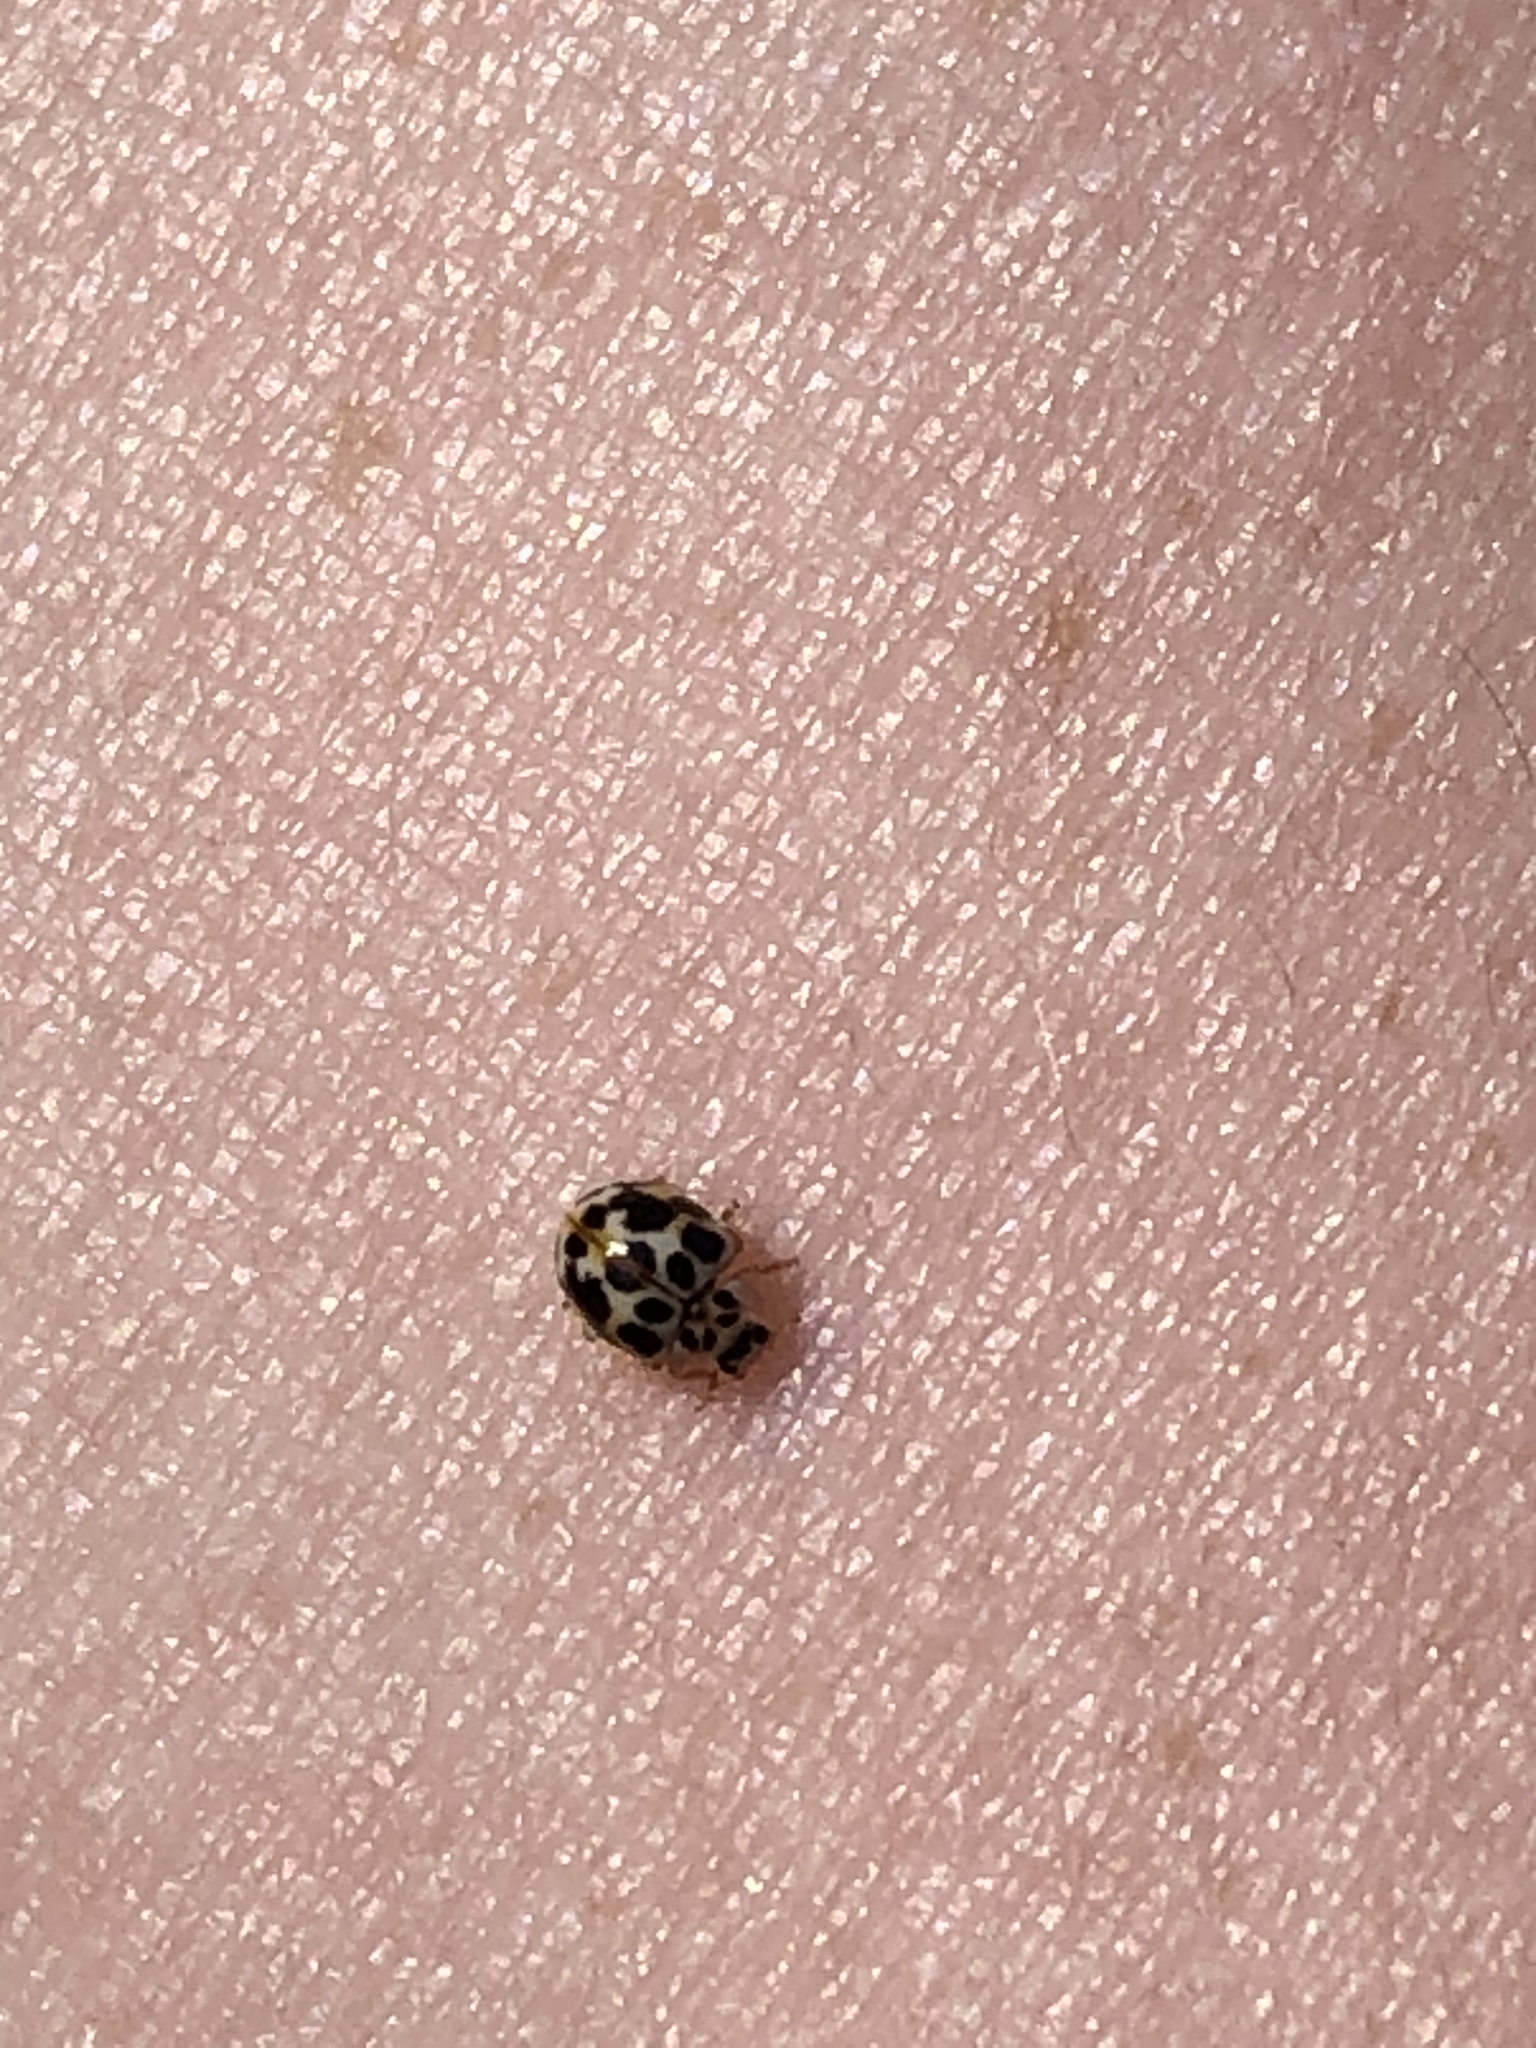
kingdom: Animalia
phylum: Arthropoda
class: Insecta
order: Coleoptera
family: Coccinellidae
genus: Psyllobora
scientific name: Psyllobora vigintimaculata
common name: Ladybird beetle
